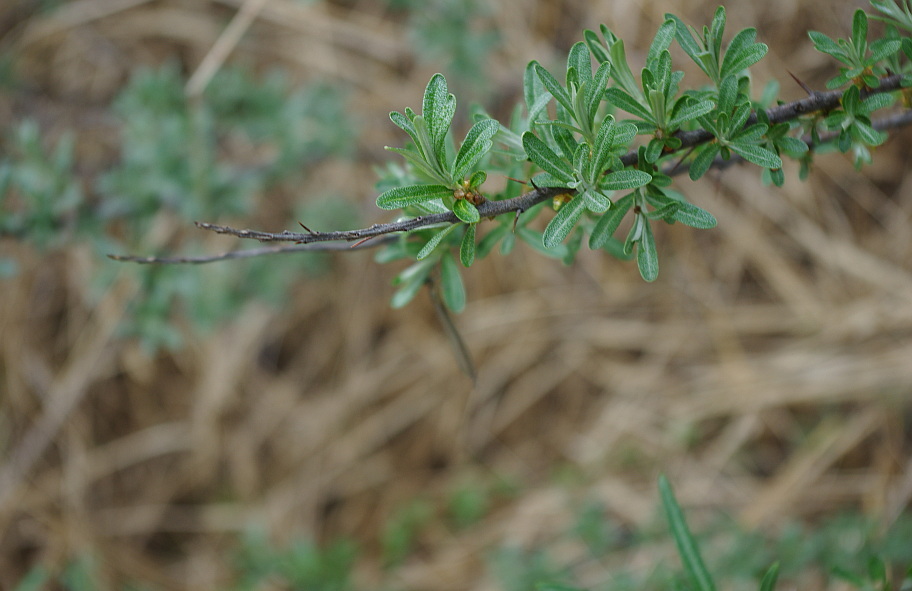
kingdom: Plantae
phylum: Tracheophyta
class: Magnoliopsida
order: Rosales
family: Elaeagnaceae
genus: Hippophae
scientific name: Hippophae rhamnoides
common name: Sea-buckthorn
